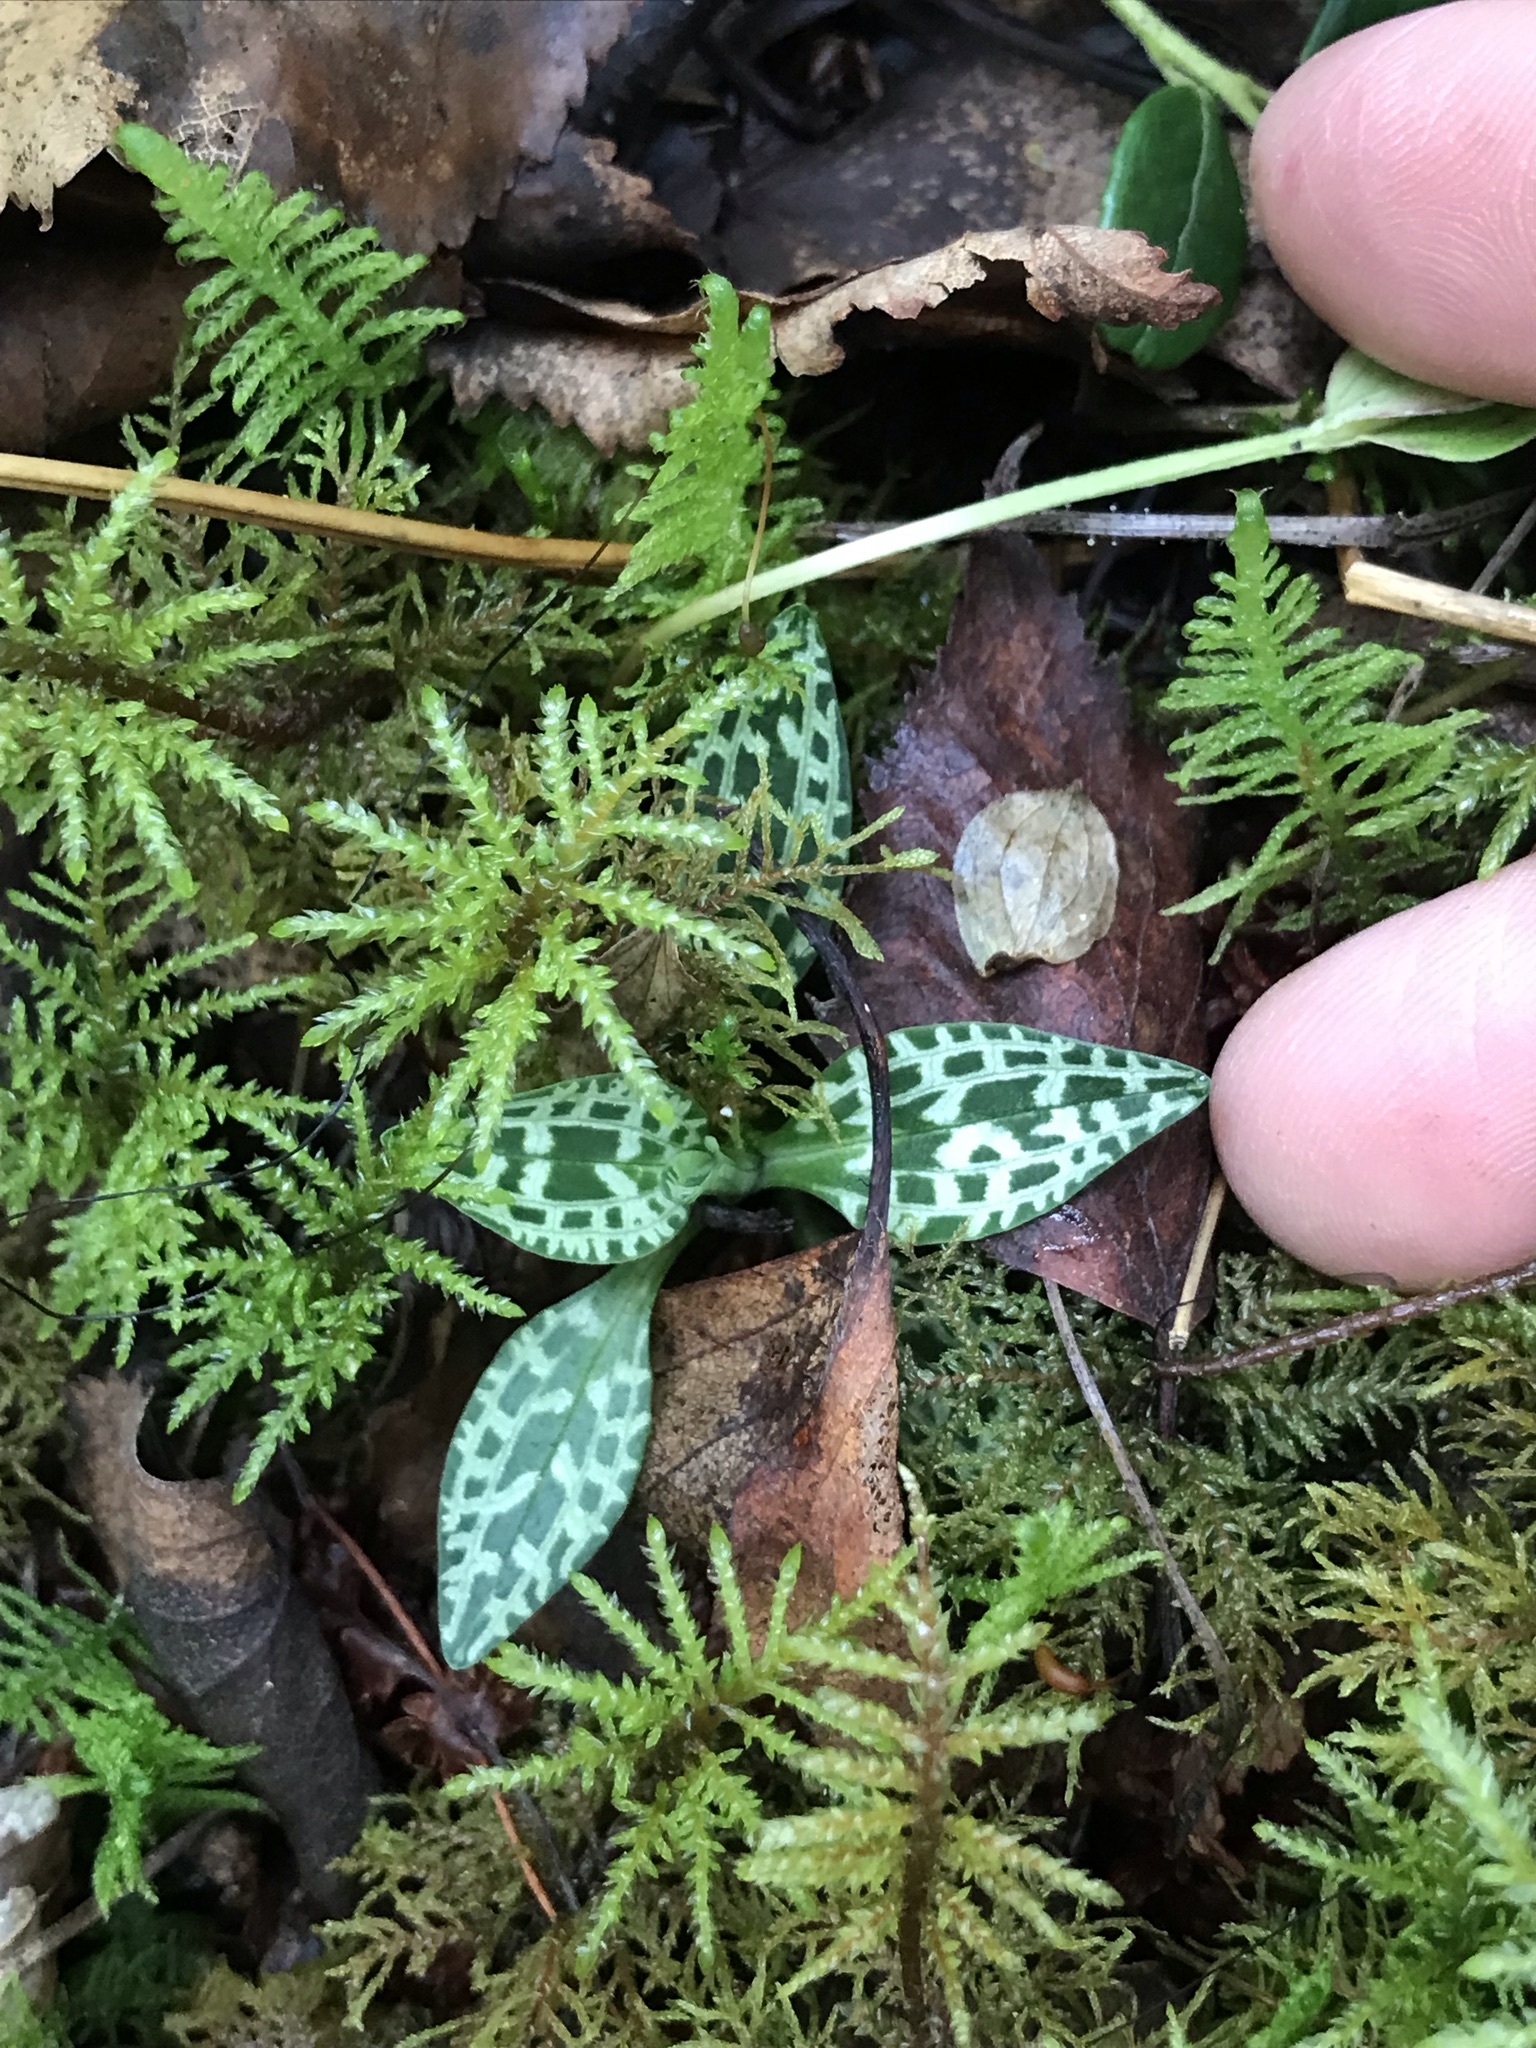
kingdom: Plantae
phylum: Tracheophyta
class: Liliopsida
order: Asparagales
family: Orchidaceae
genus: Goodyera
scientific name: Goodyera repens
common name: Creeping lady's-tresses
